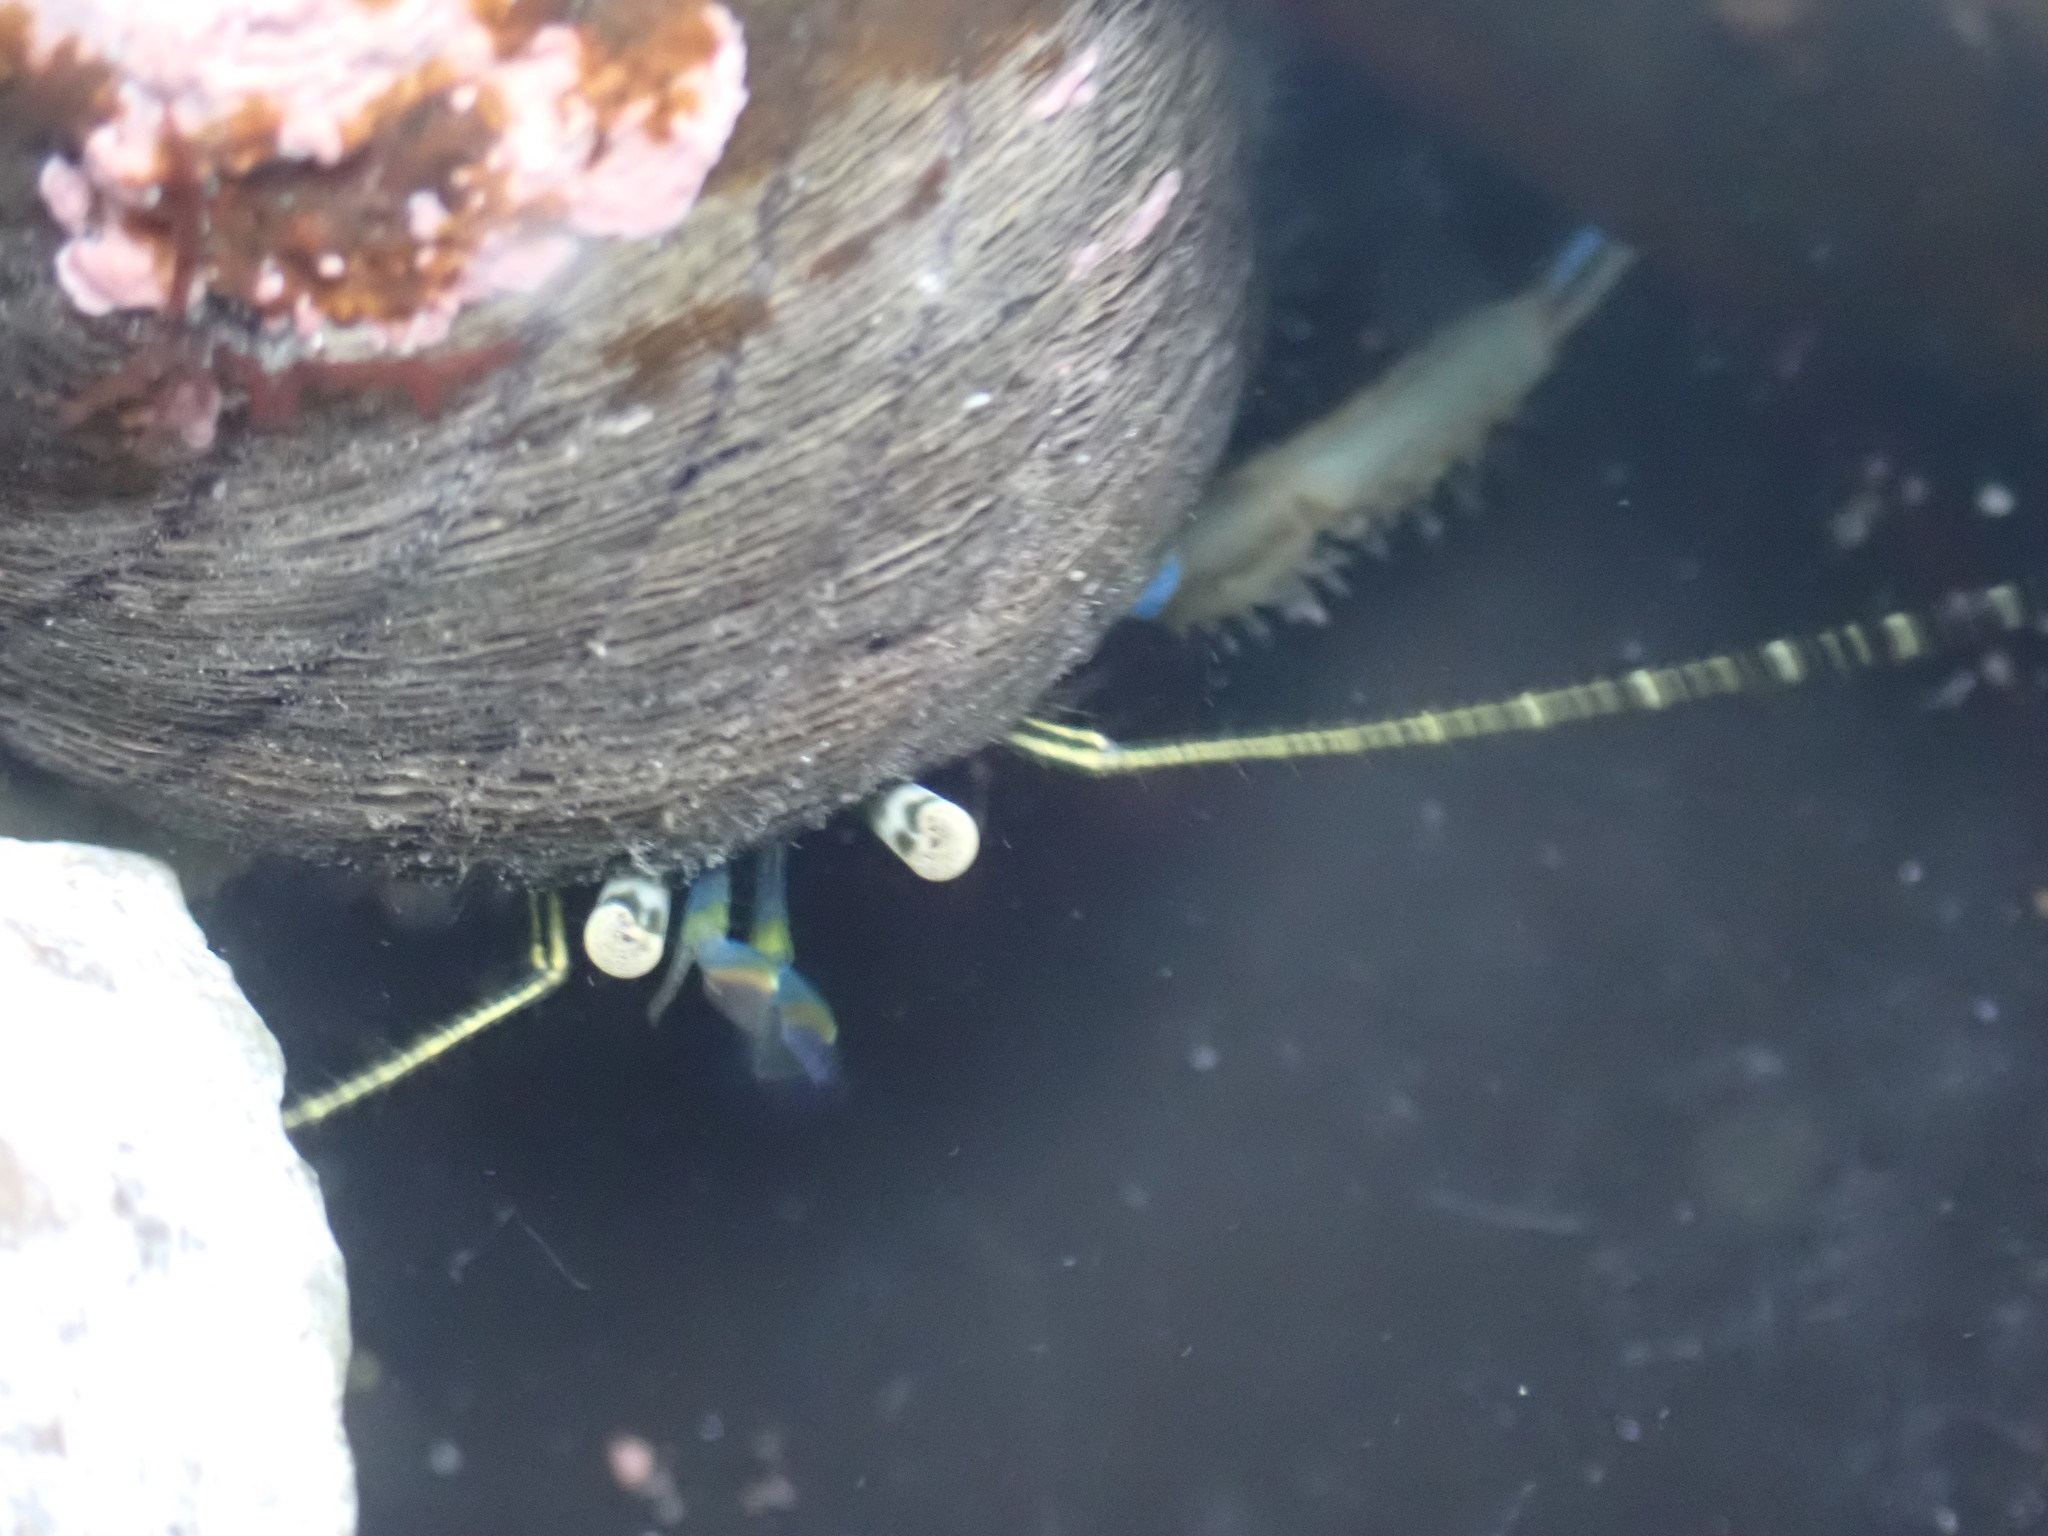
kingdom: Animalia
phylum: Arthropoda
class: Malacostraca
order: Decapoda
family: Paguridae
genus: Pagurus
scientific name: Pagurus novizealandiae
